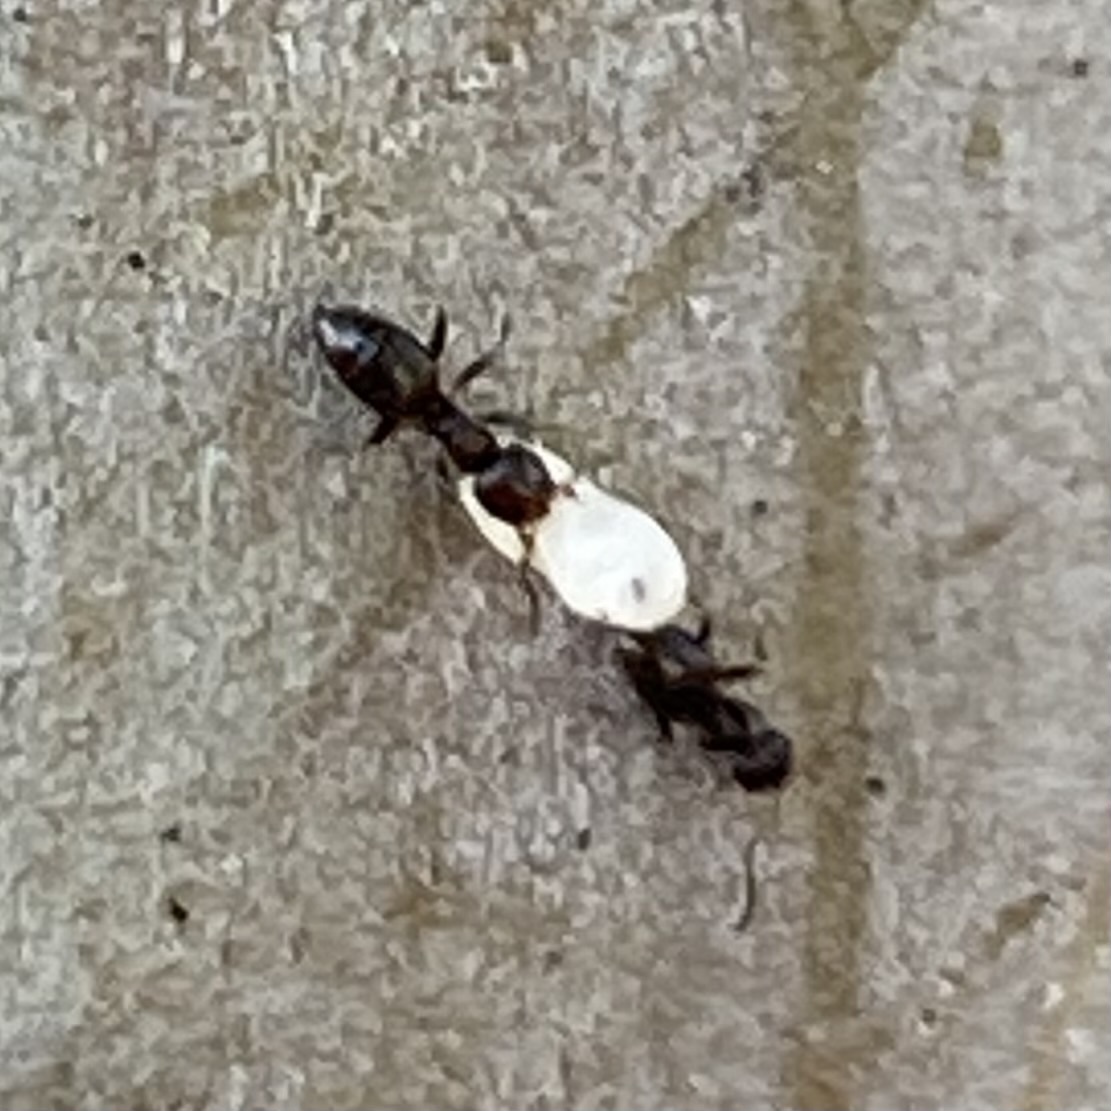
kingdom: Animalia
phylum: Arthropoda
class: Insecta
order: Hymenoptera
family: Formicidae
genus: Brachymyrmex
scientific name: Brachymyrmex patagonicus
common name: Dark rover ant
